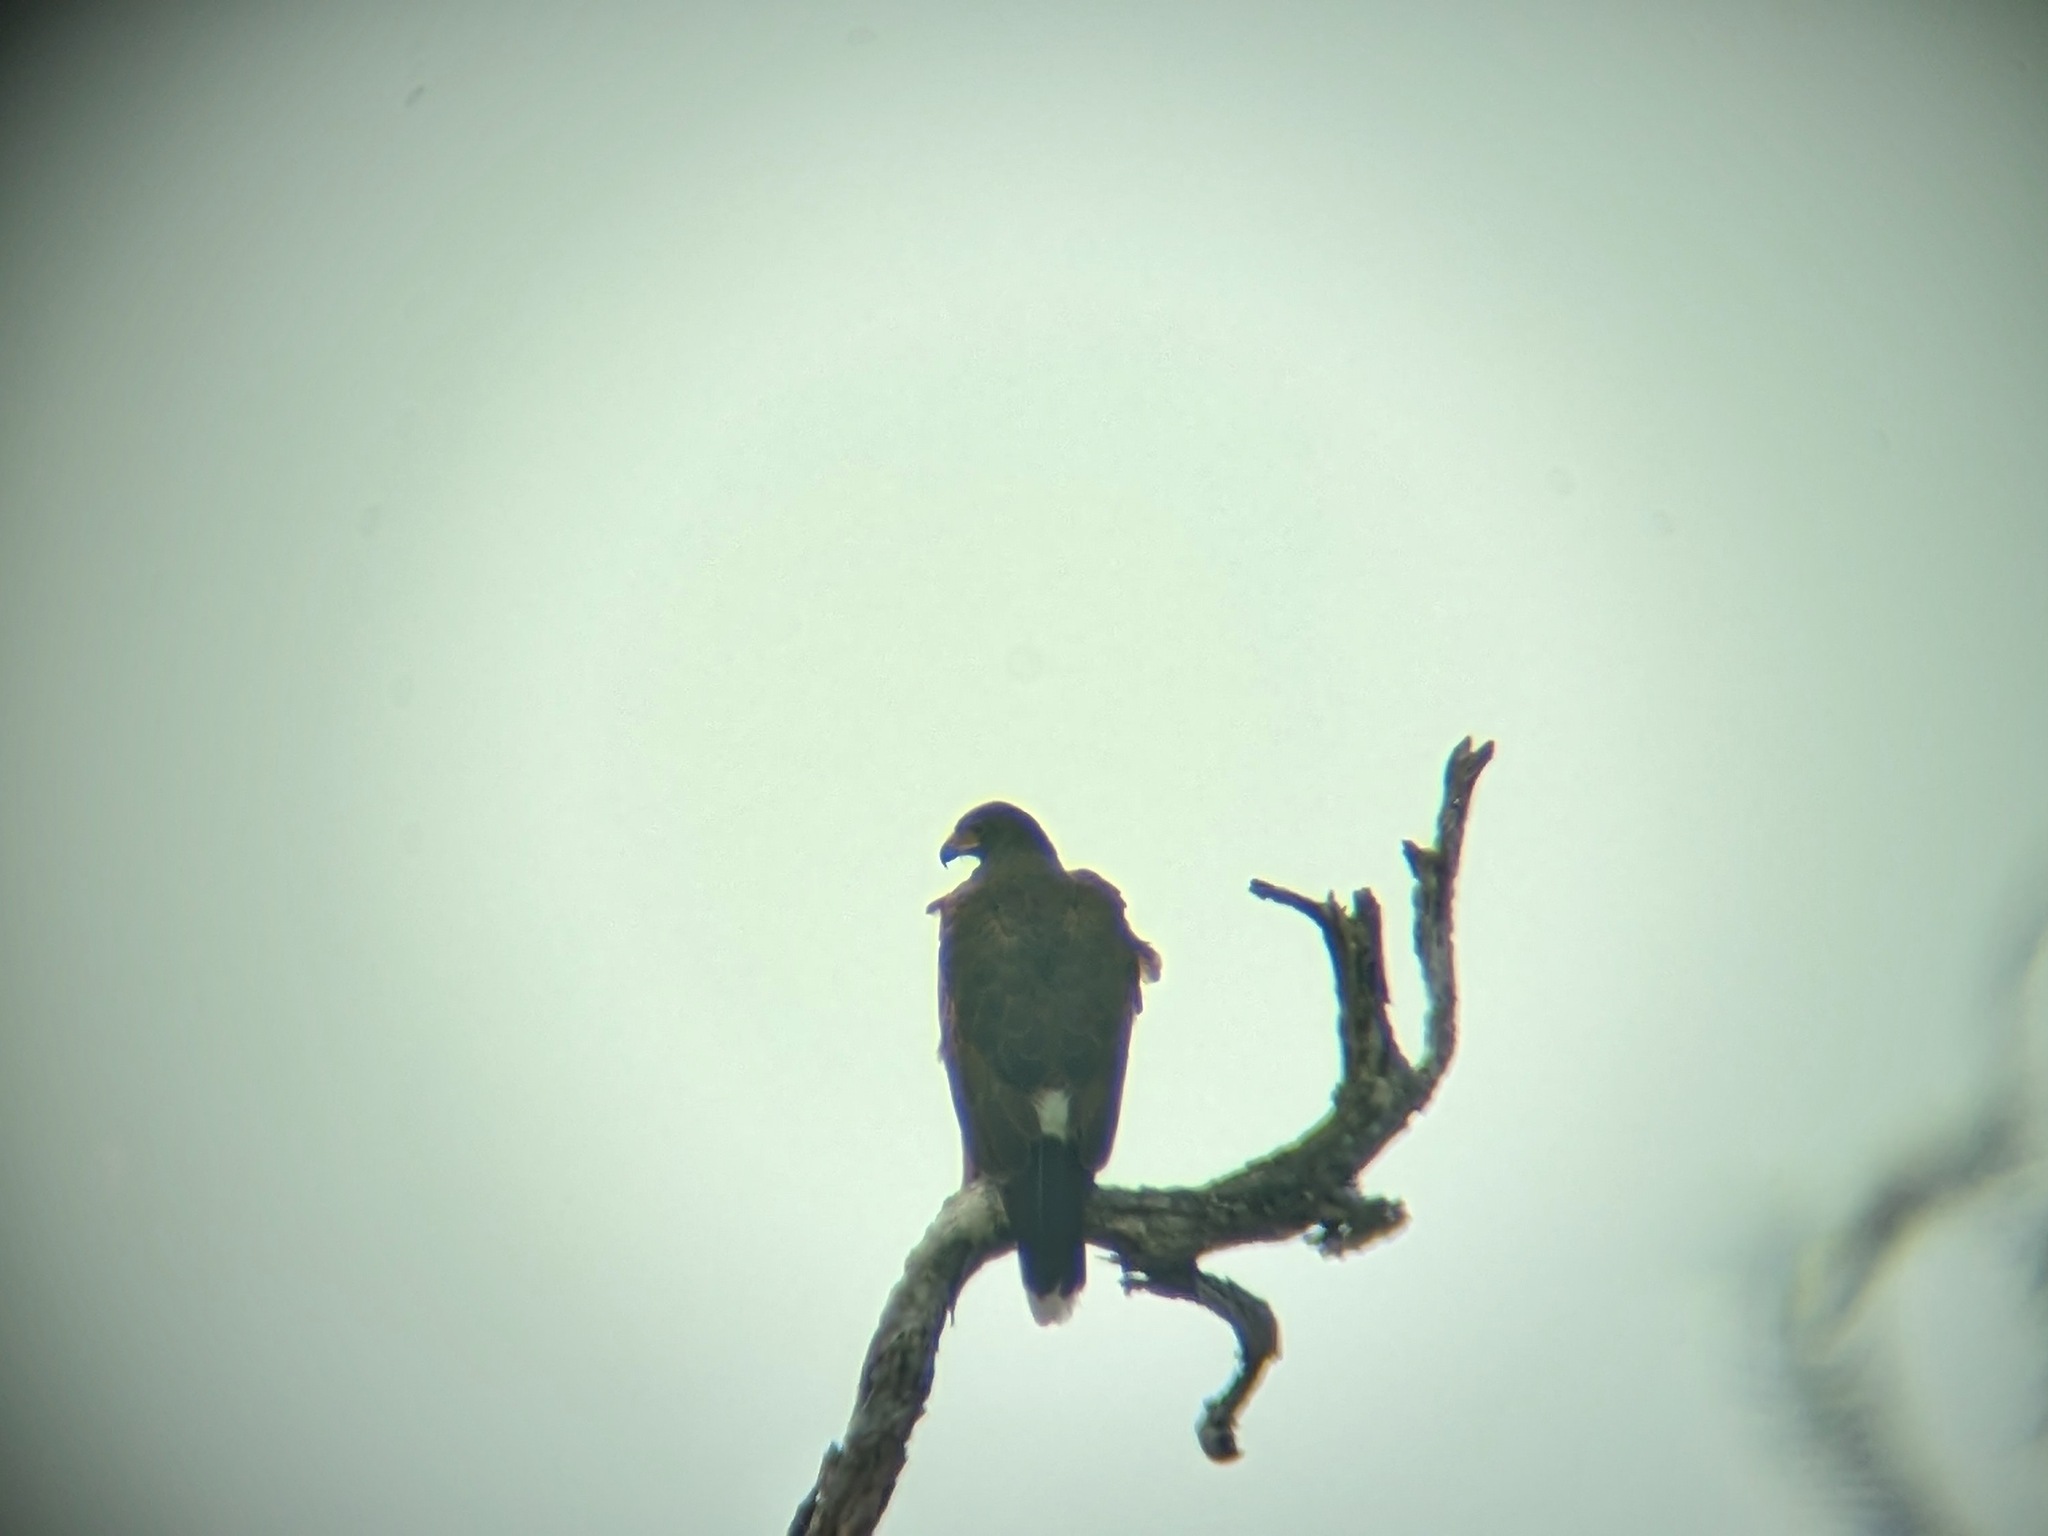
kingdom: Animalia
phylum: Chordata
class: Aves
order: Accipitriformes
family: Accipitridae
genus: Parabuteo
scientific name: Parabuteo unicinctus
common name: Harris's hawk
